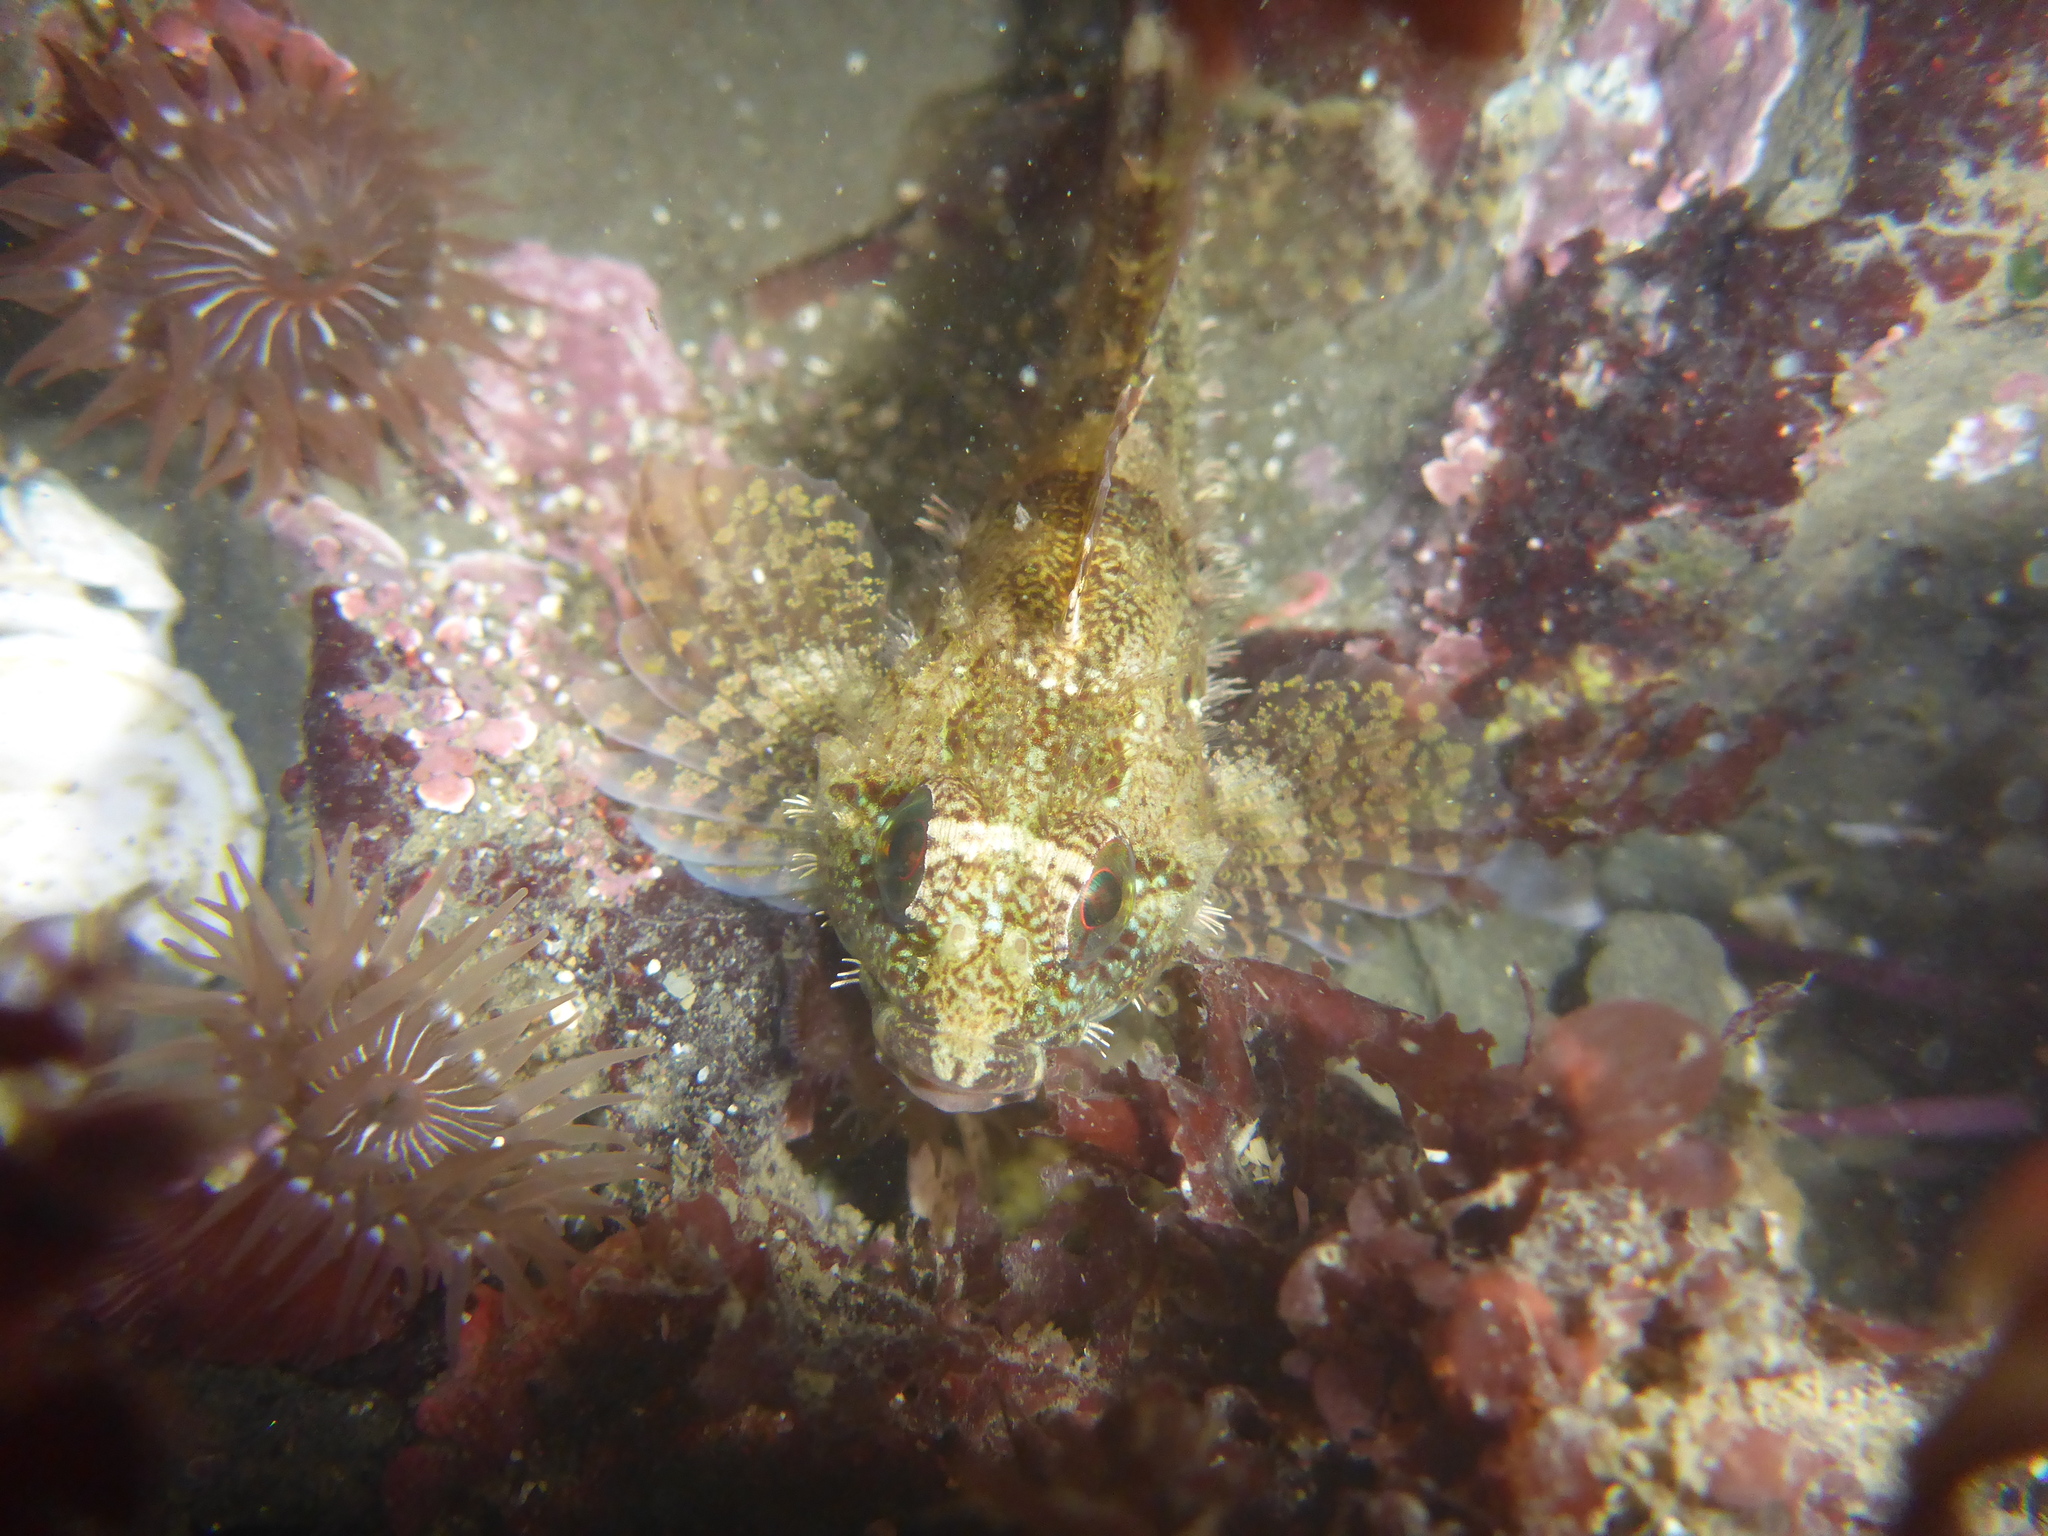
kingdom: Animalia
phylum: Chordata
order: Scorpaeniformes
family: Cottidae
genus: Oligocottus
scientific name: Oligocottus rubellio
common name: Rosy sculpin
